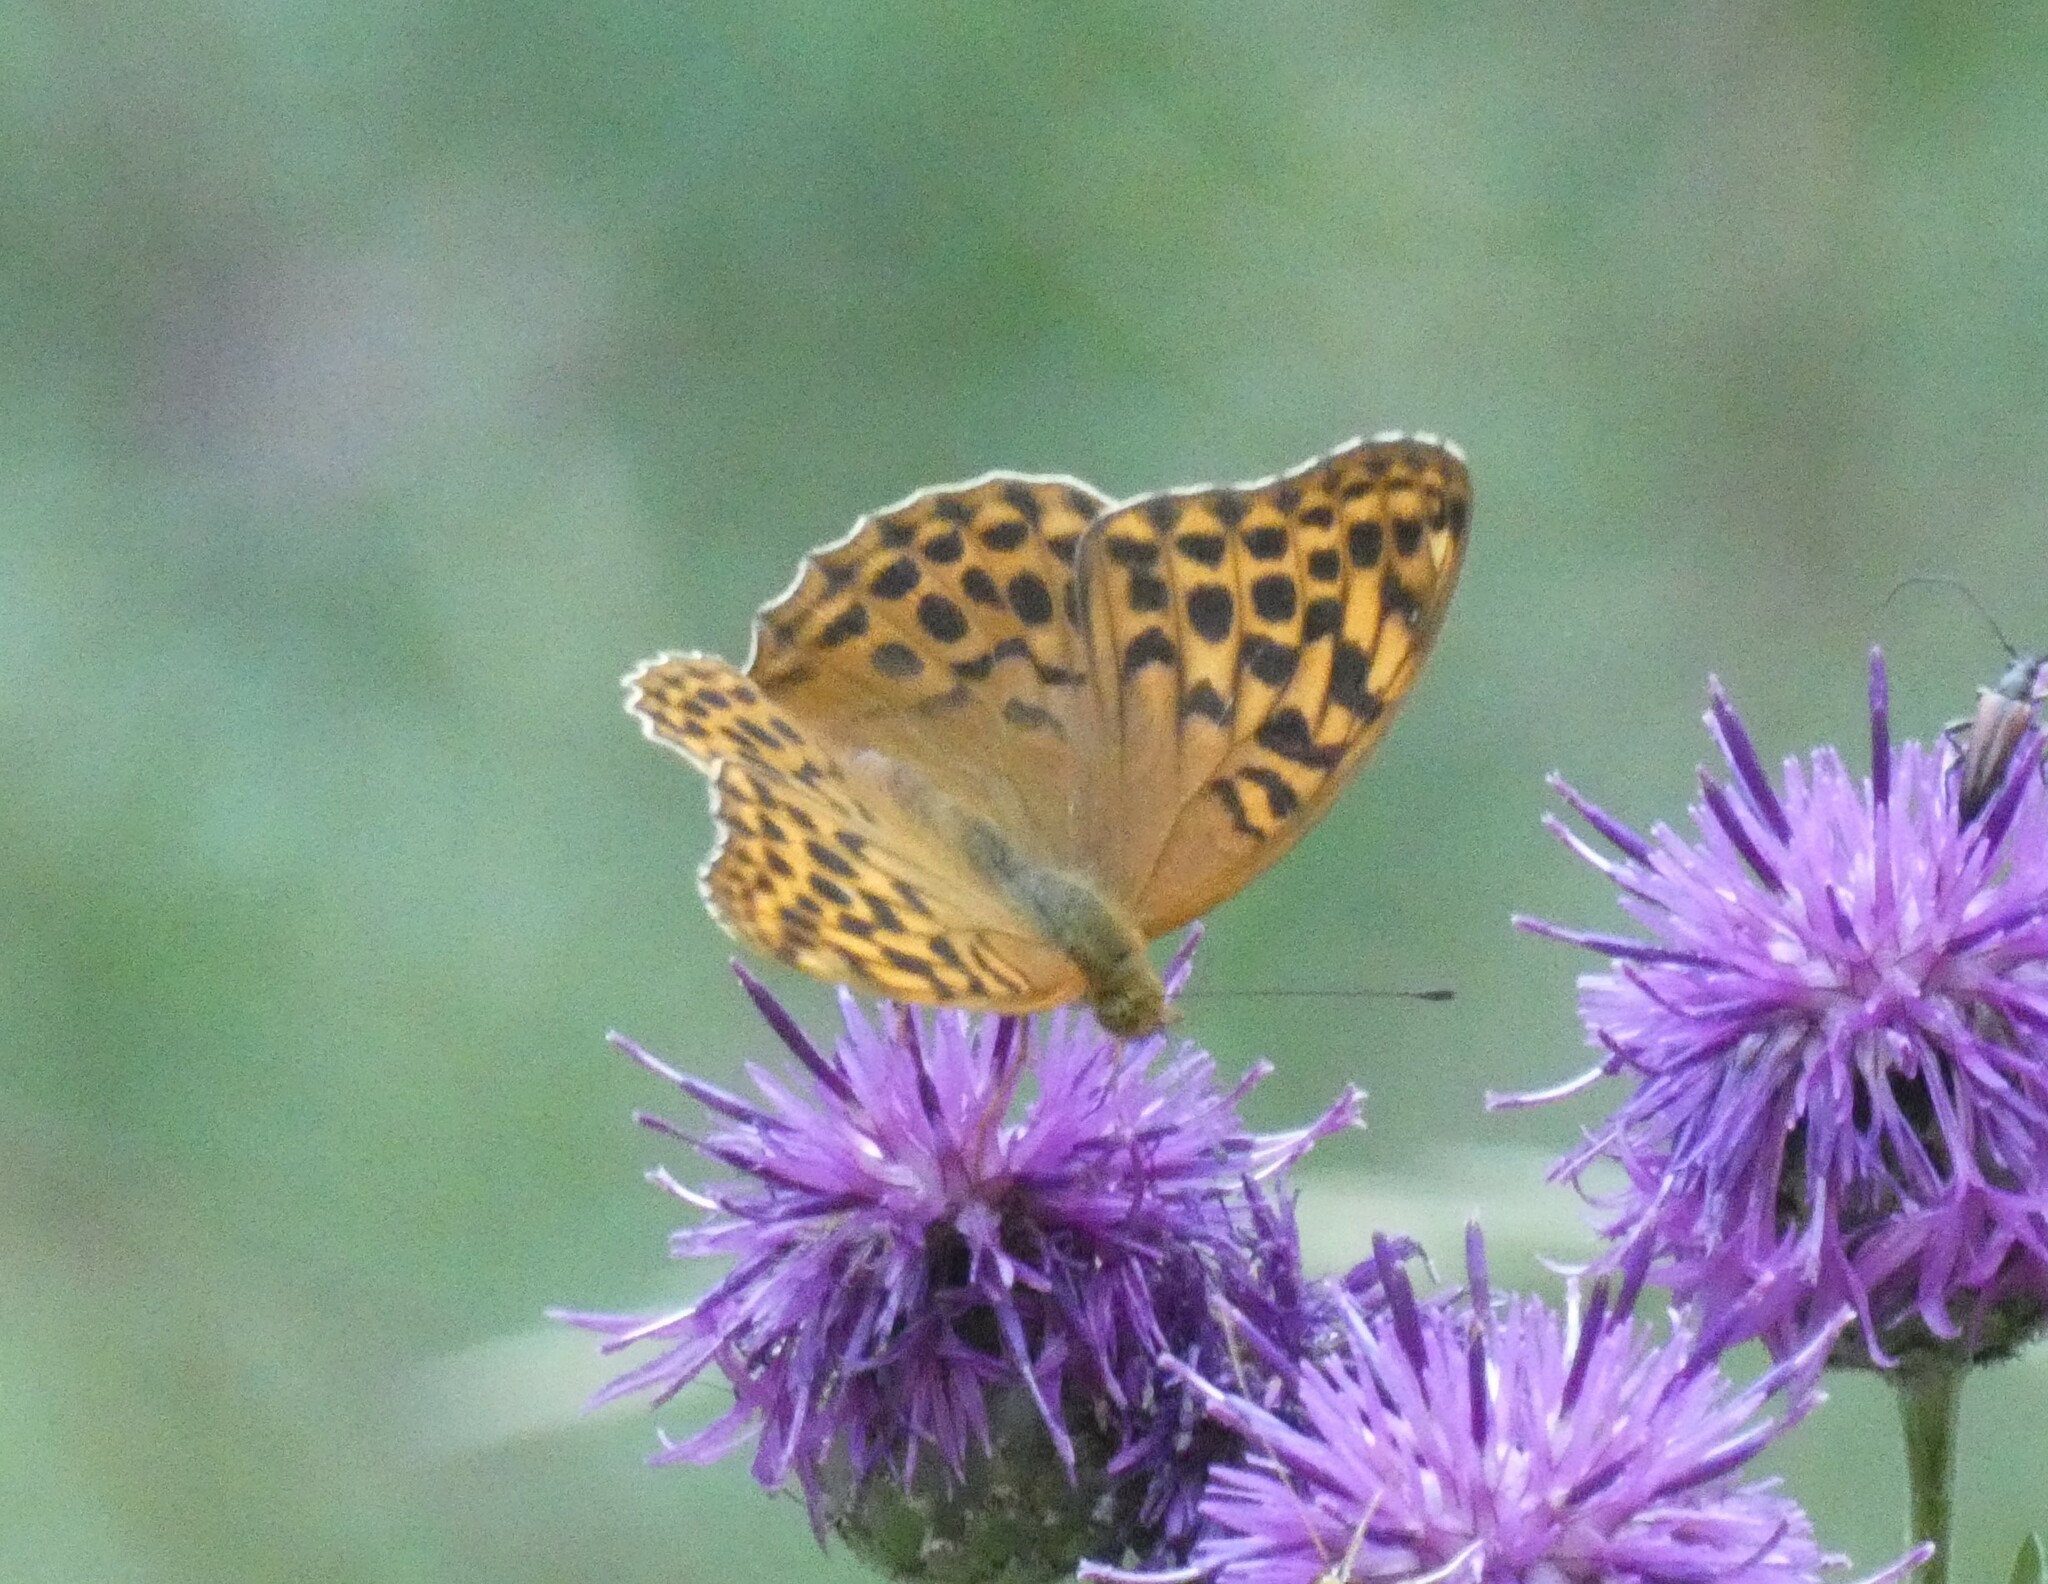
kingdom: Animalia
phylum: Arthropoda
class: Insecta
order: Lepidoptera
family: Nymphalidae
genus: Argynnis
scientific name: Argynnis paphia
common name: Silver-washed fritillary
